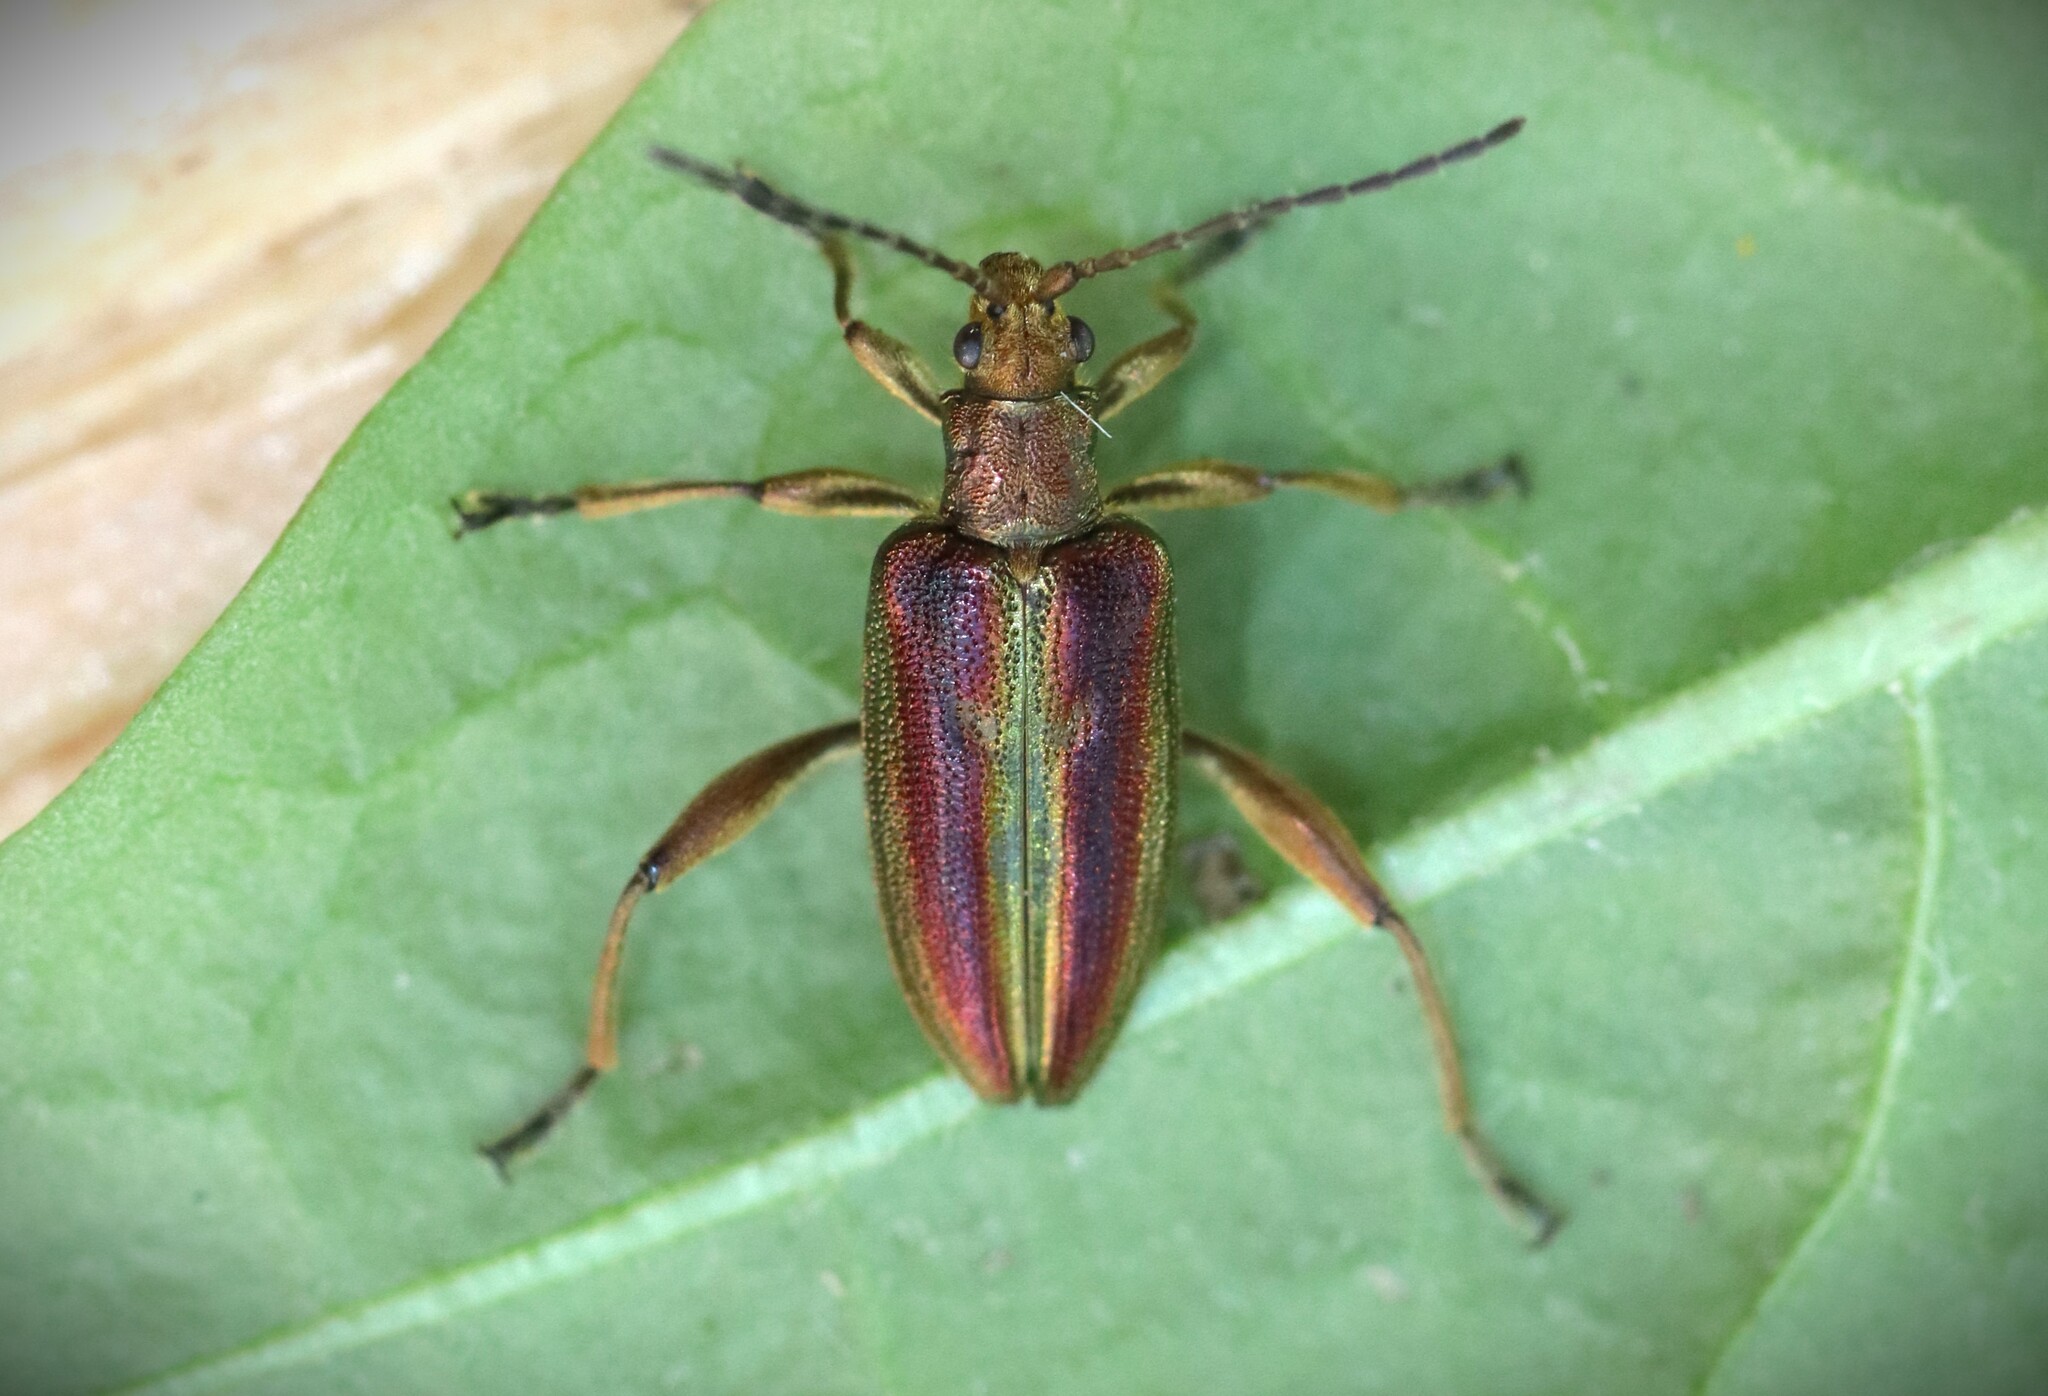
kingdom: Animalia
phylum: Arthropoda
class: Insecta
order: Coleoptera
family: Chrysomelidae
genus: Donacia
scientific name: Donacia aquatica
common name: Zircon reed beetle
